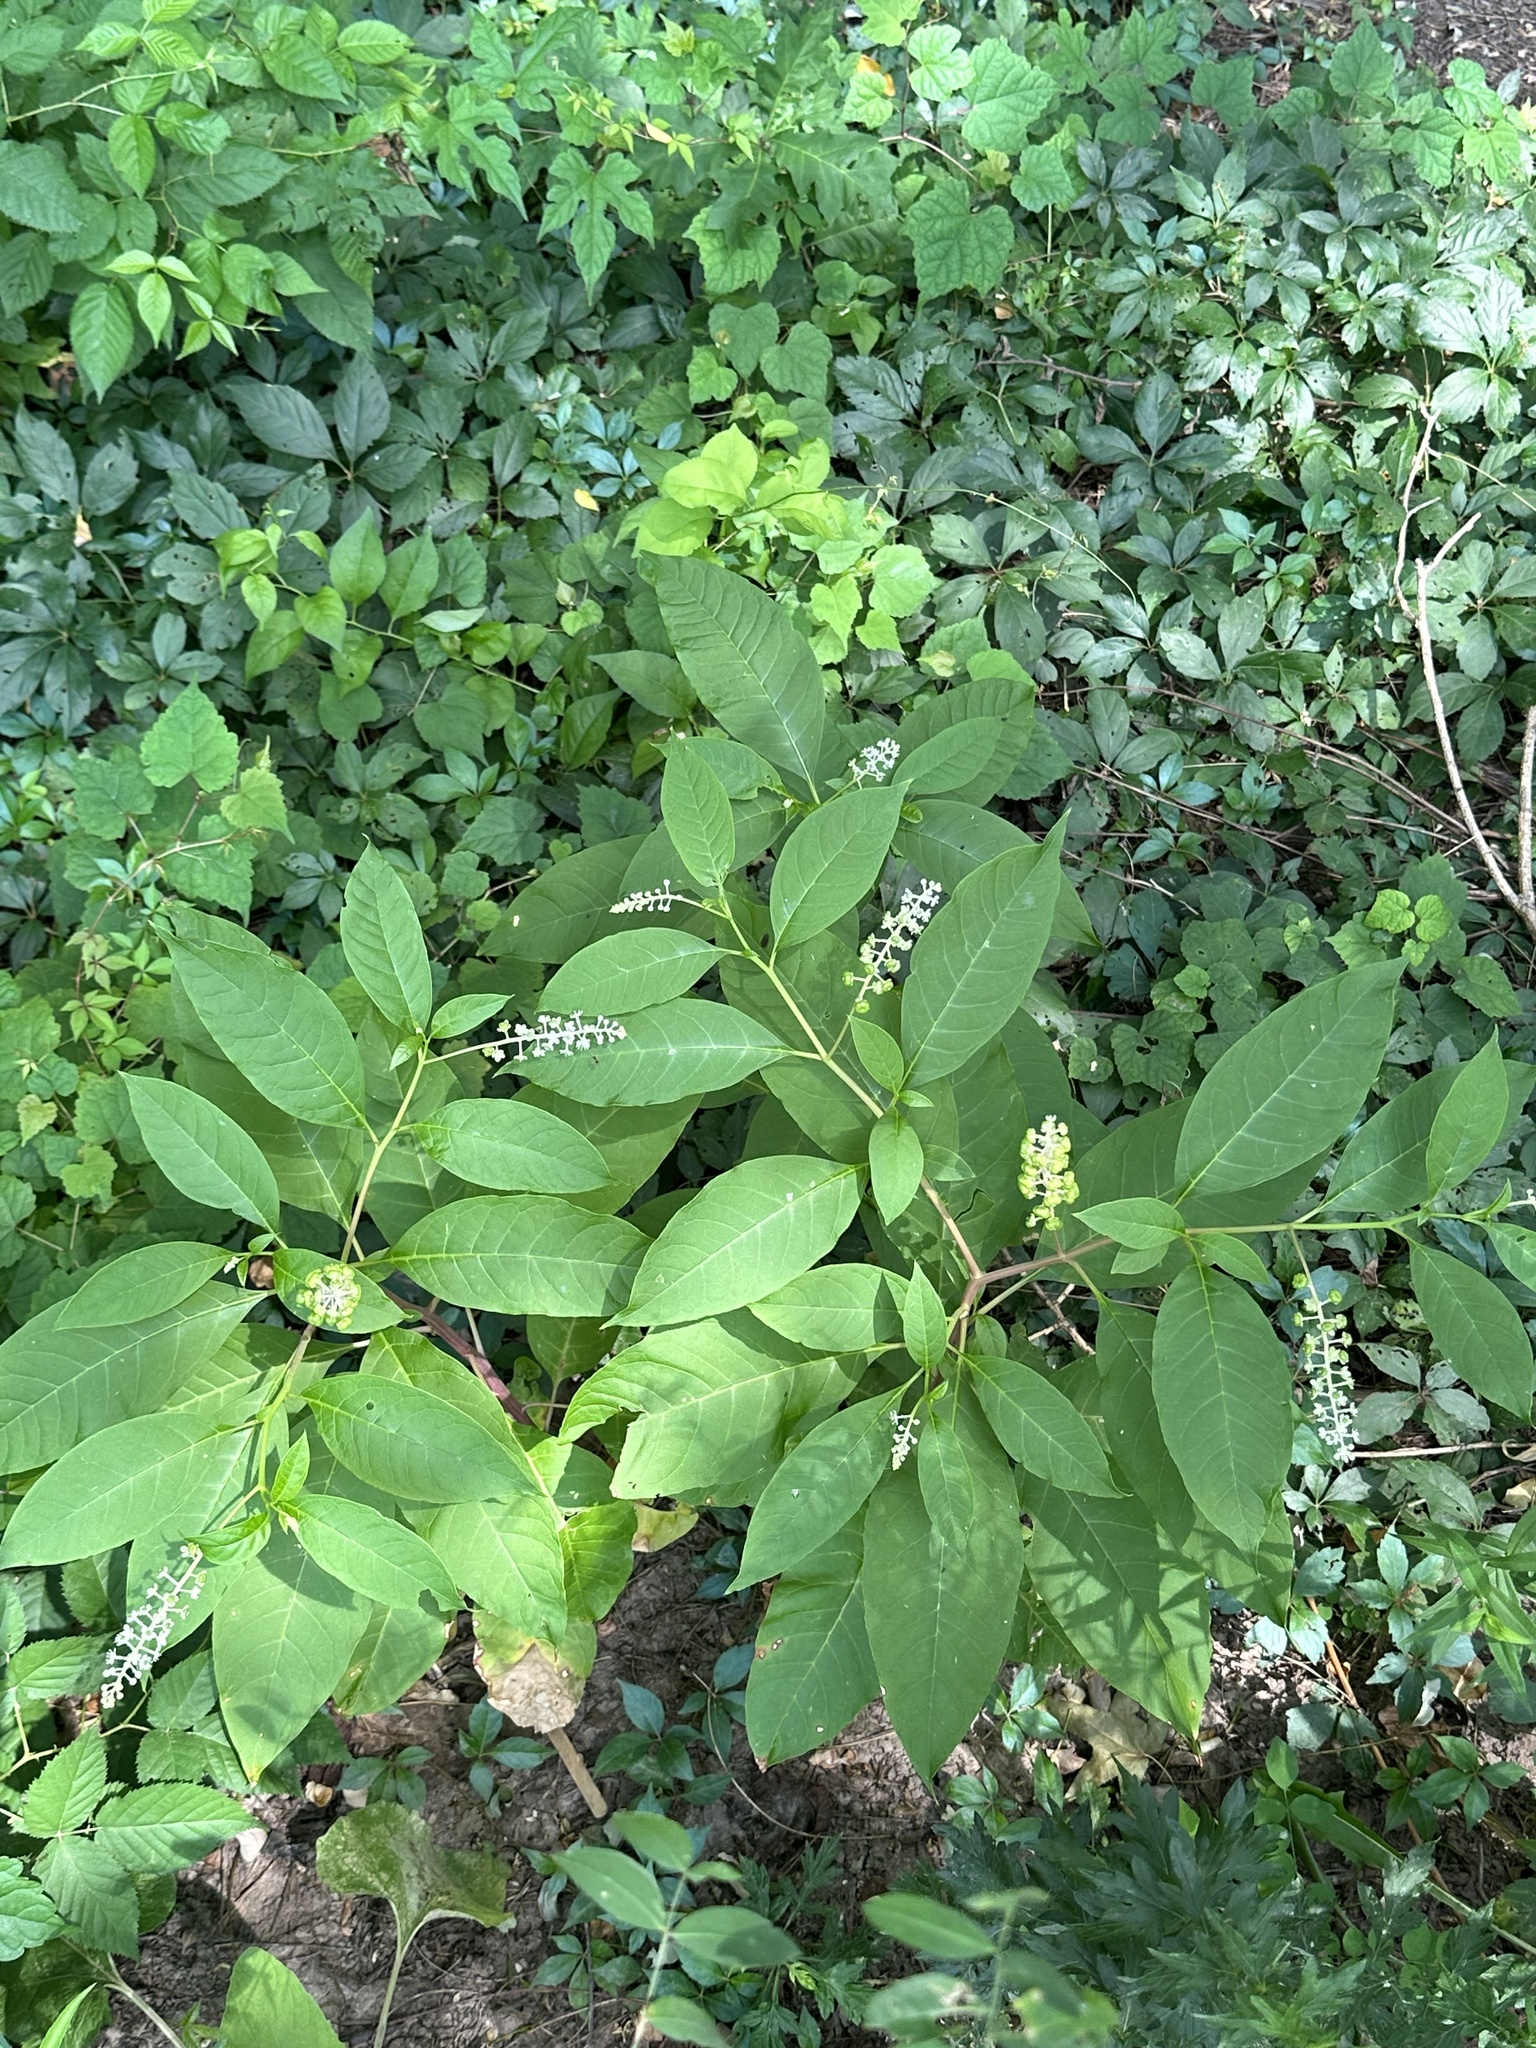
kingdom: Plantae
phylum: Tracheophyta
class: Magnoliopsida
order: Caryophyllales
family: Phytolaccaceae
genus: Phytolacca
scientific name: Phytolacca americana
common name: American pokeweed
